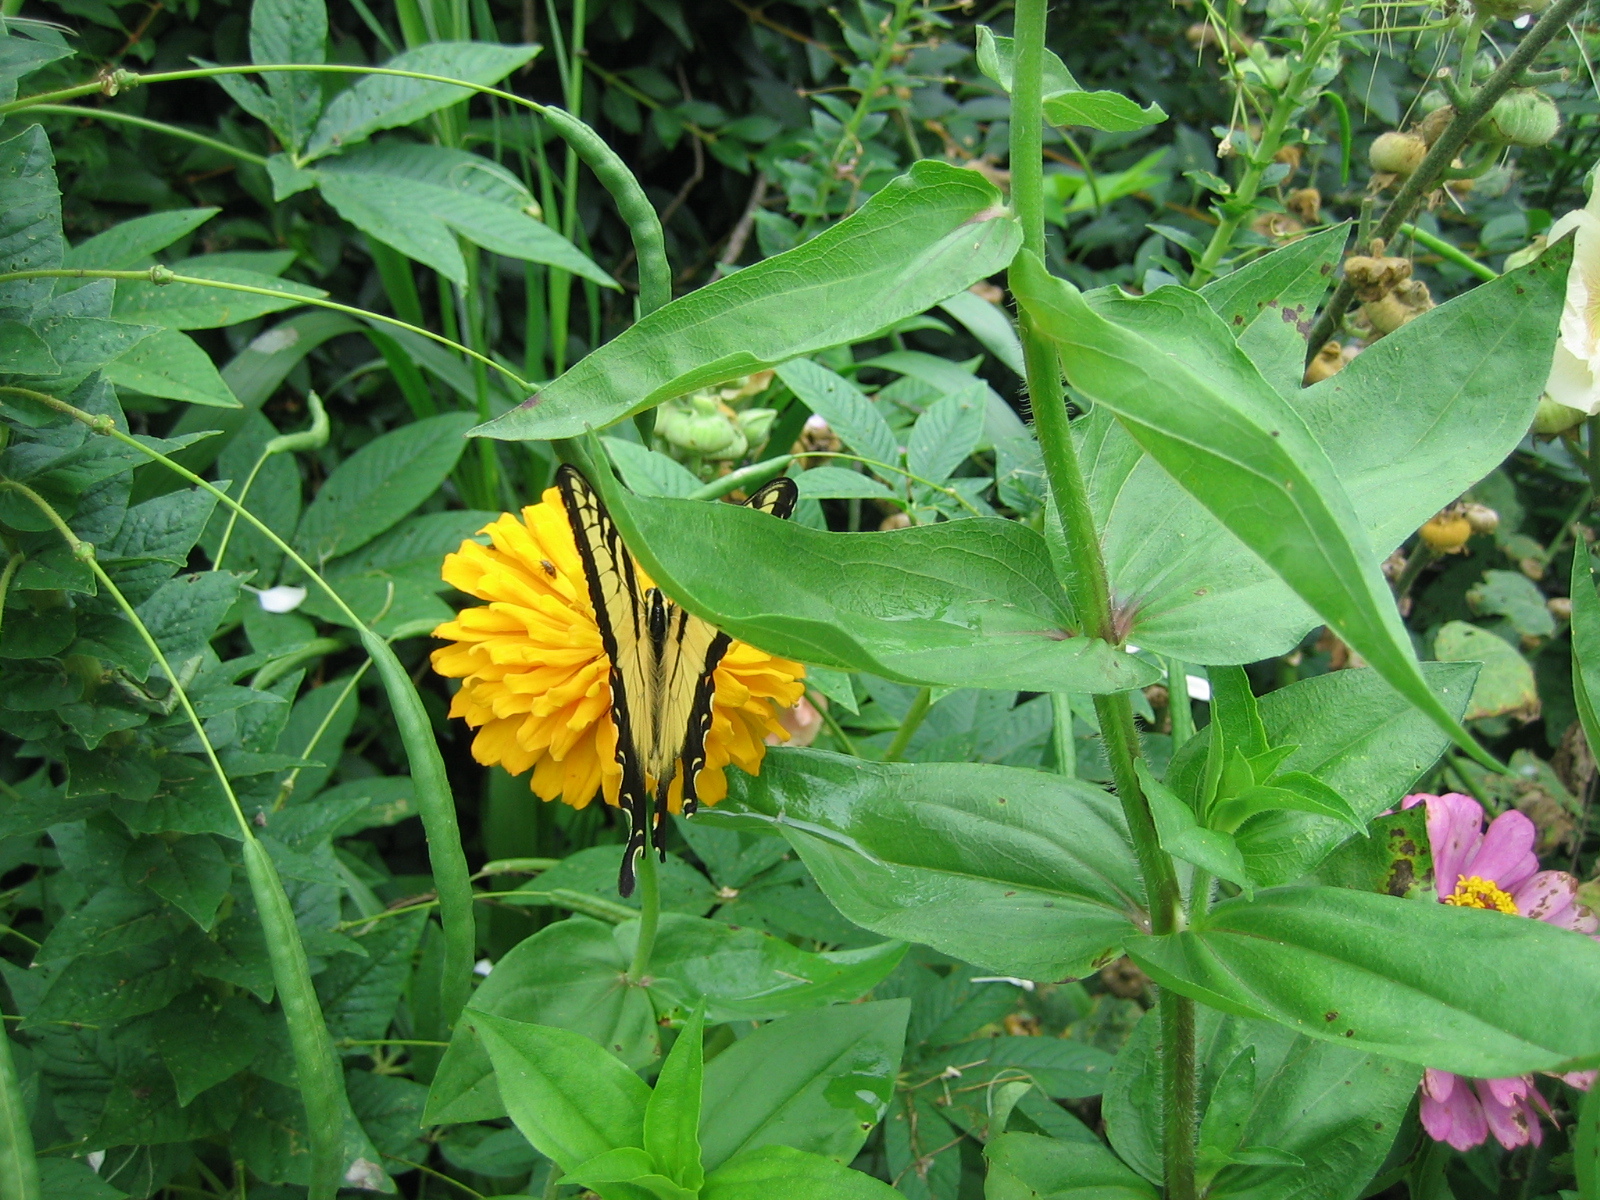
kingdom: Animalia
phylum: Arthropoda
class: Insecta
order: Lepidoptera
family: Papilionidae
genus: Papilio
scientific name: Papilio glaucus
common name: Tiger swallowtail
